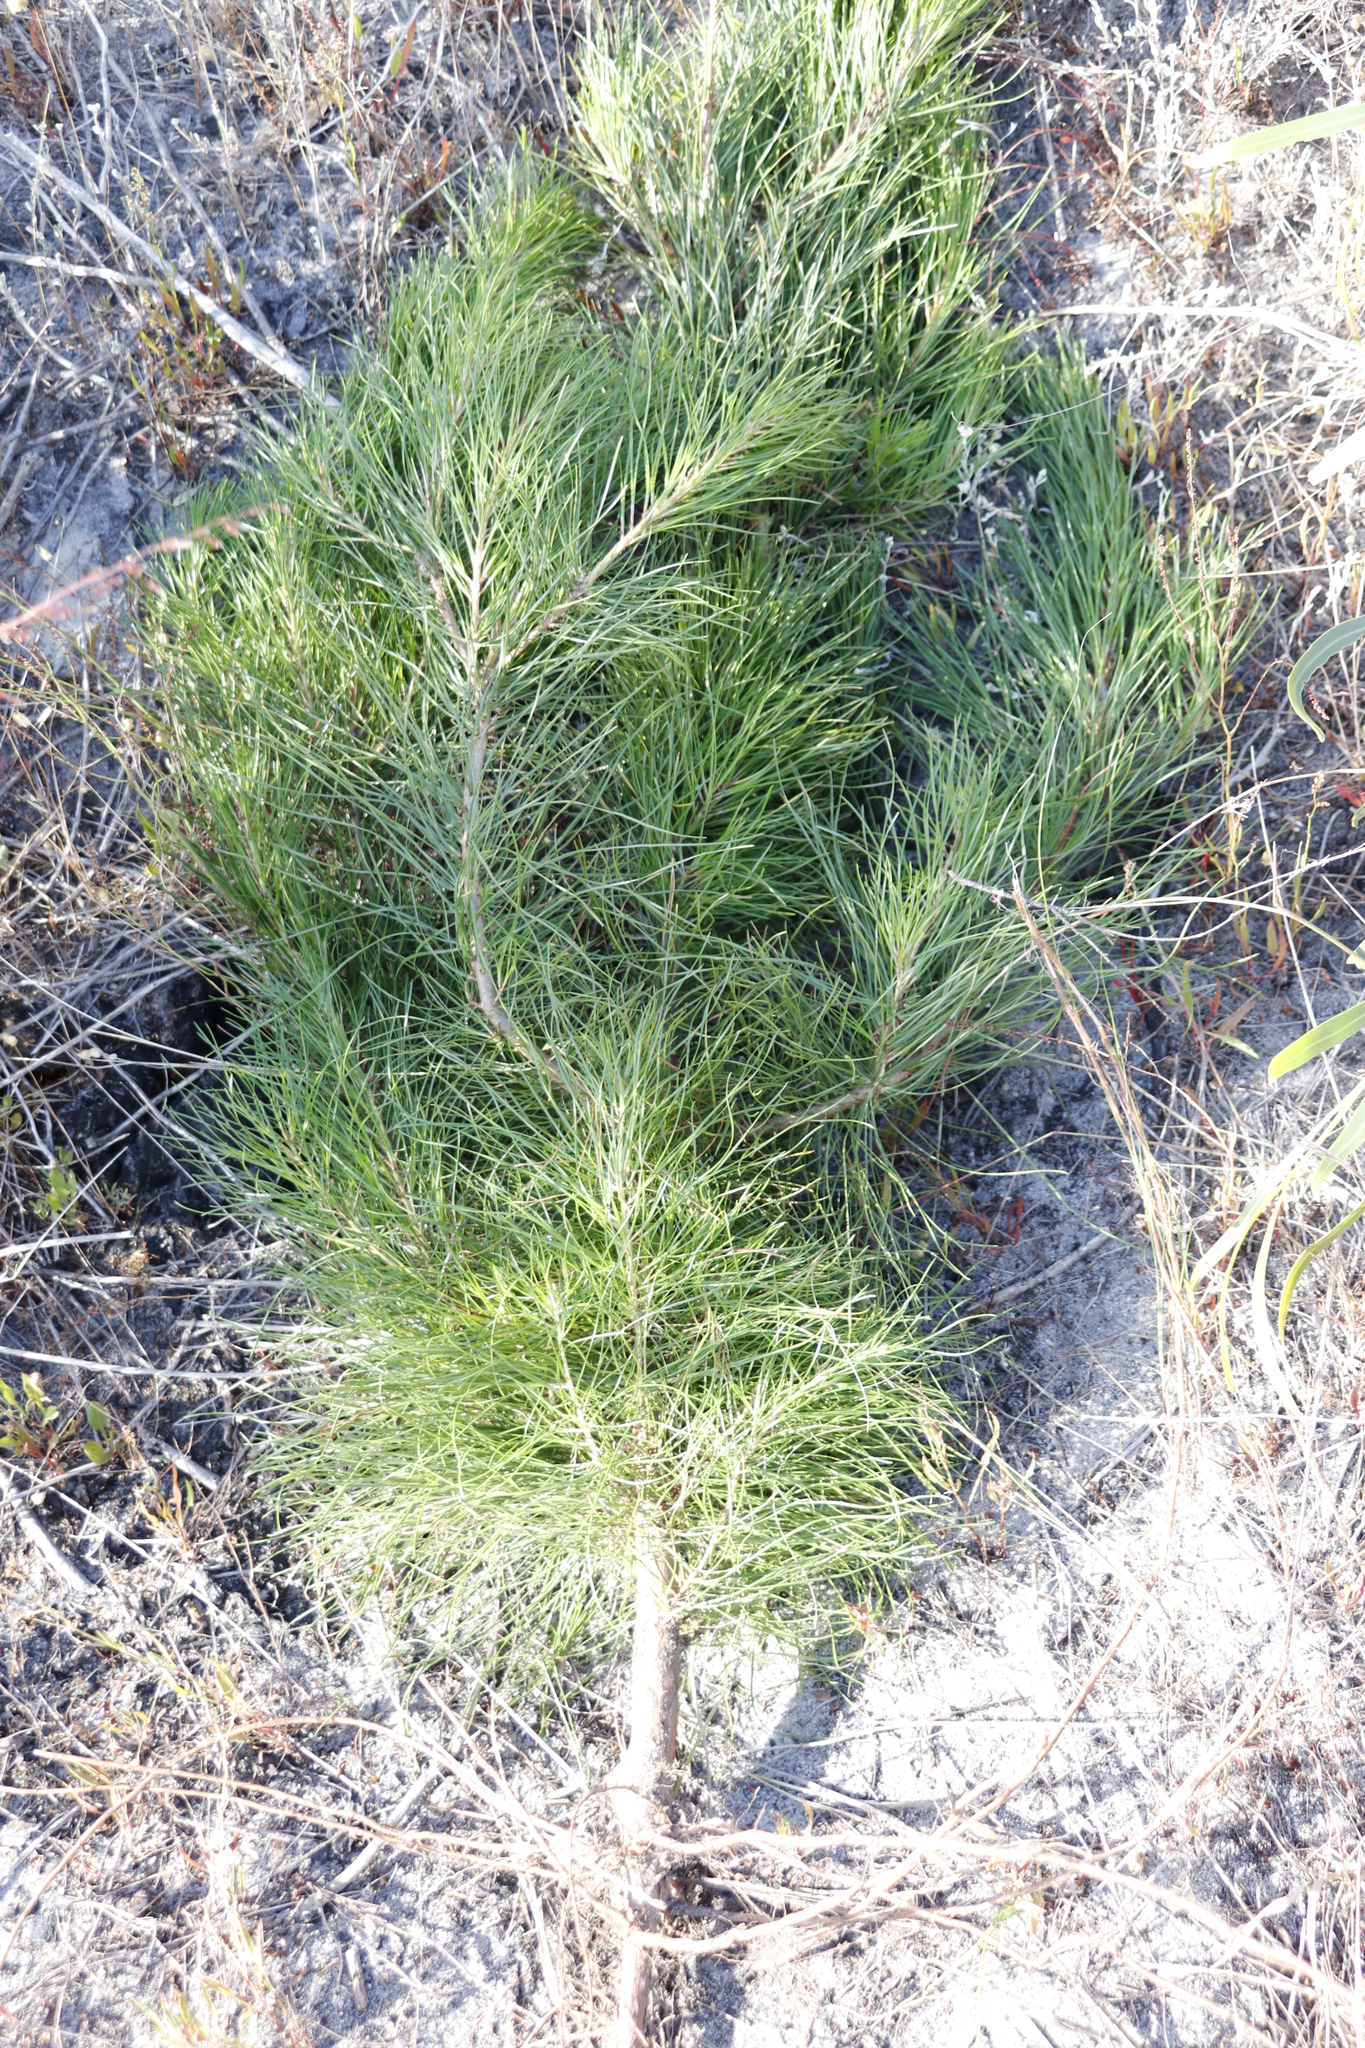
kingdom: Plantae
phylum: Tracheophyta
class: Pinopsida
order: Pinales
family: Pinaceae
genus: Pinus
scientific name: Pinus radiata
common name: Monterey pine
